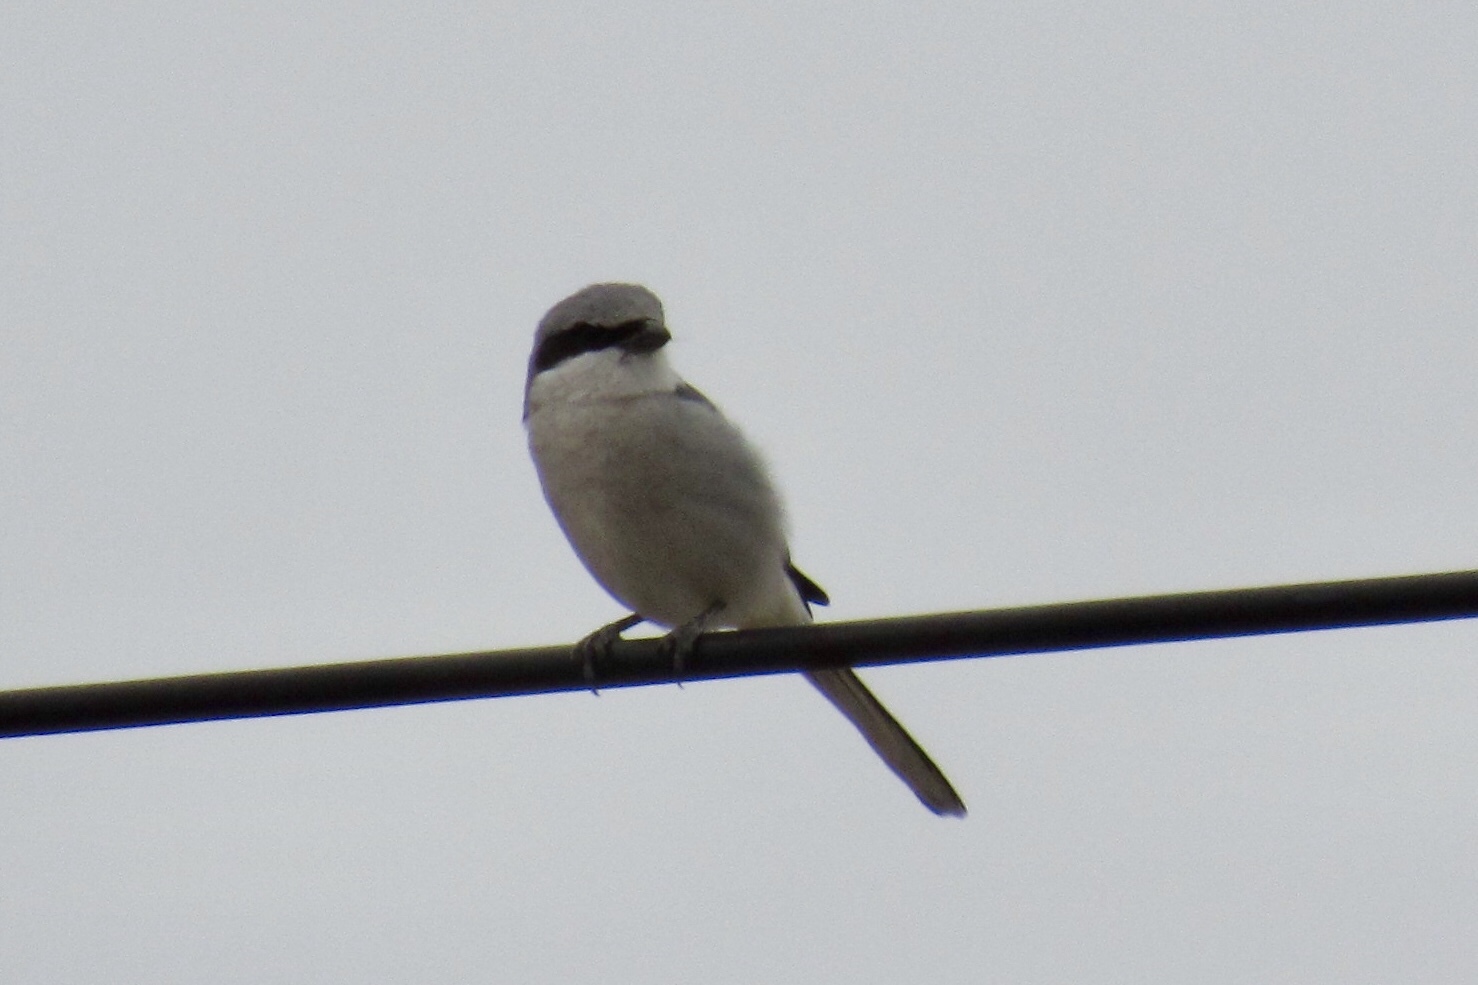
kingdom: Animalia
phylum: Chordata
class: Aves
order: Passeriformes
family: Laniidae
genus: Lanius
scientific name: Lanius ludovicianus
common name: Loggerhead shrike
